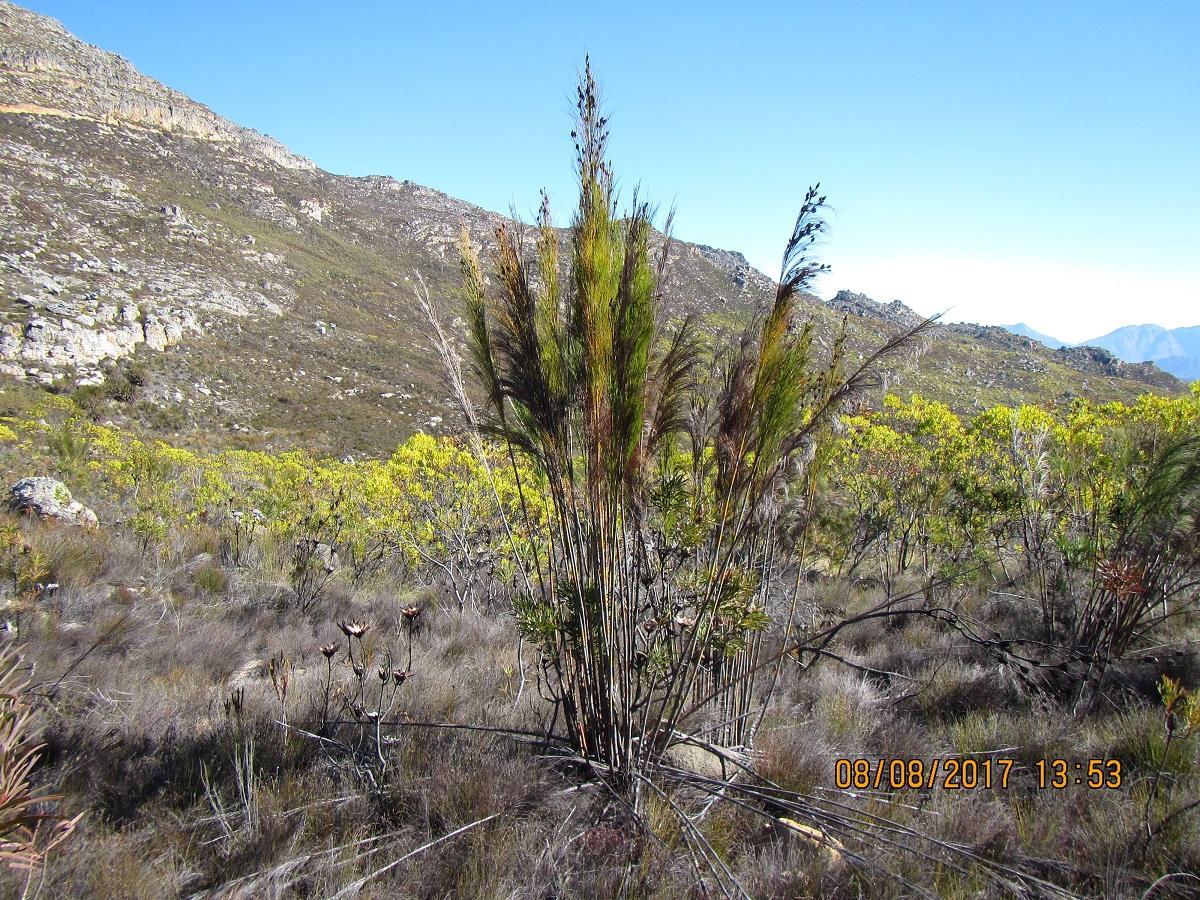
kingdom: Plantae
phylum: Tracheophyta
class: Liliopsida
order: Poales
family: Restionaceae
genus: Cannomois
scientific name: Cannomois grandis
